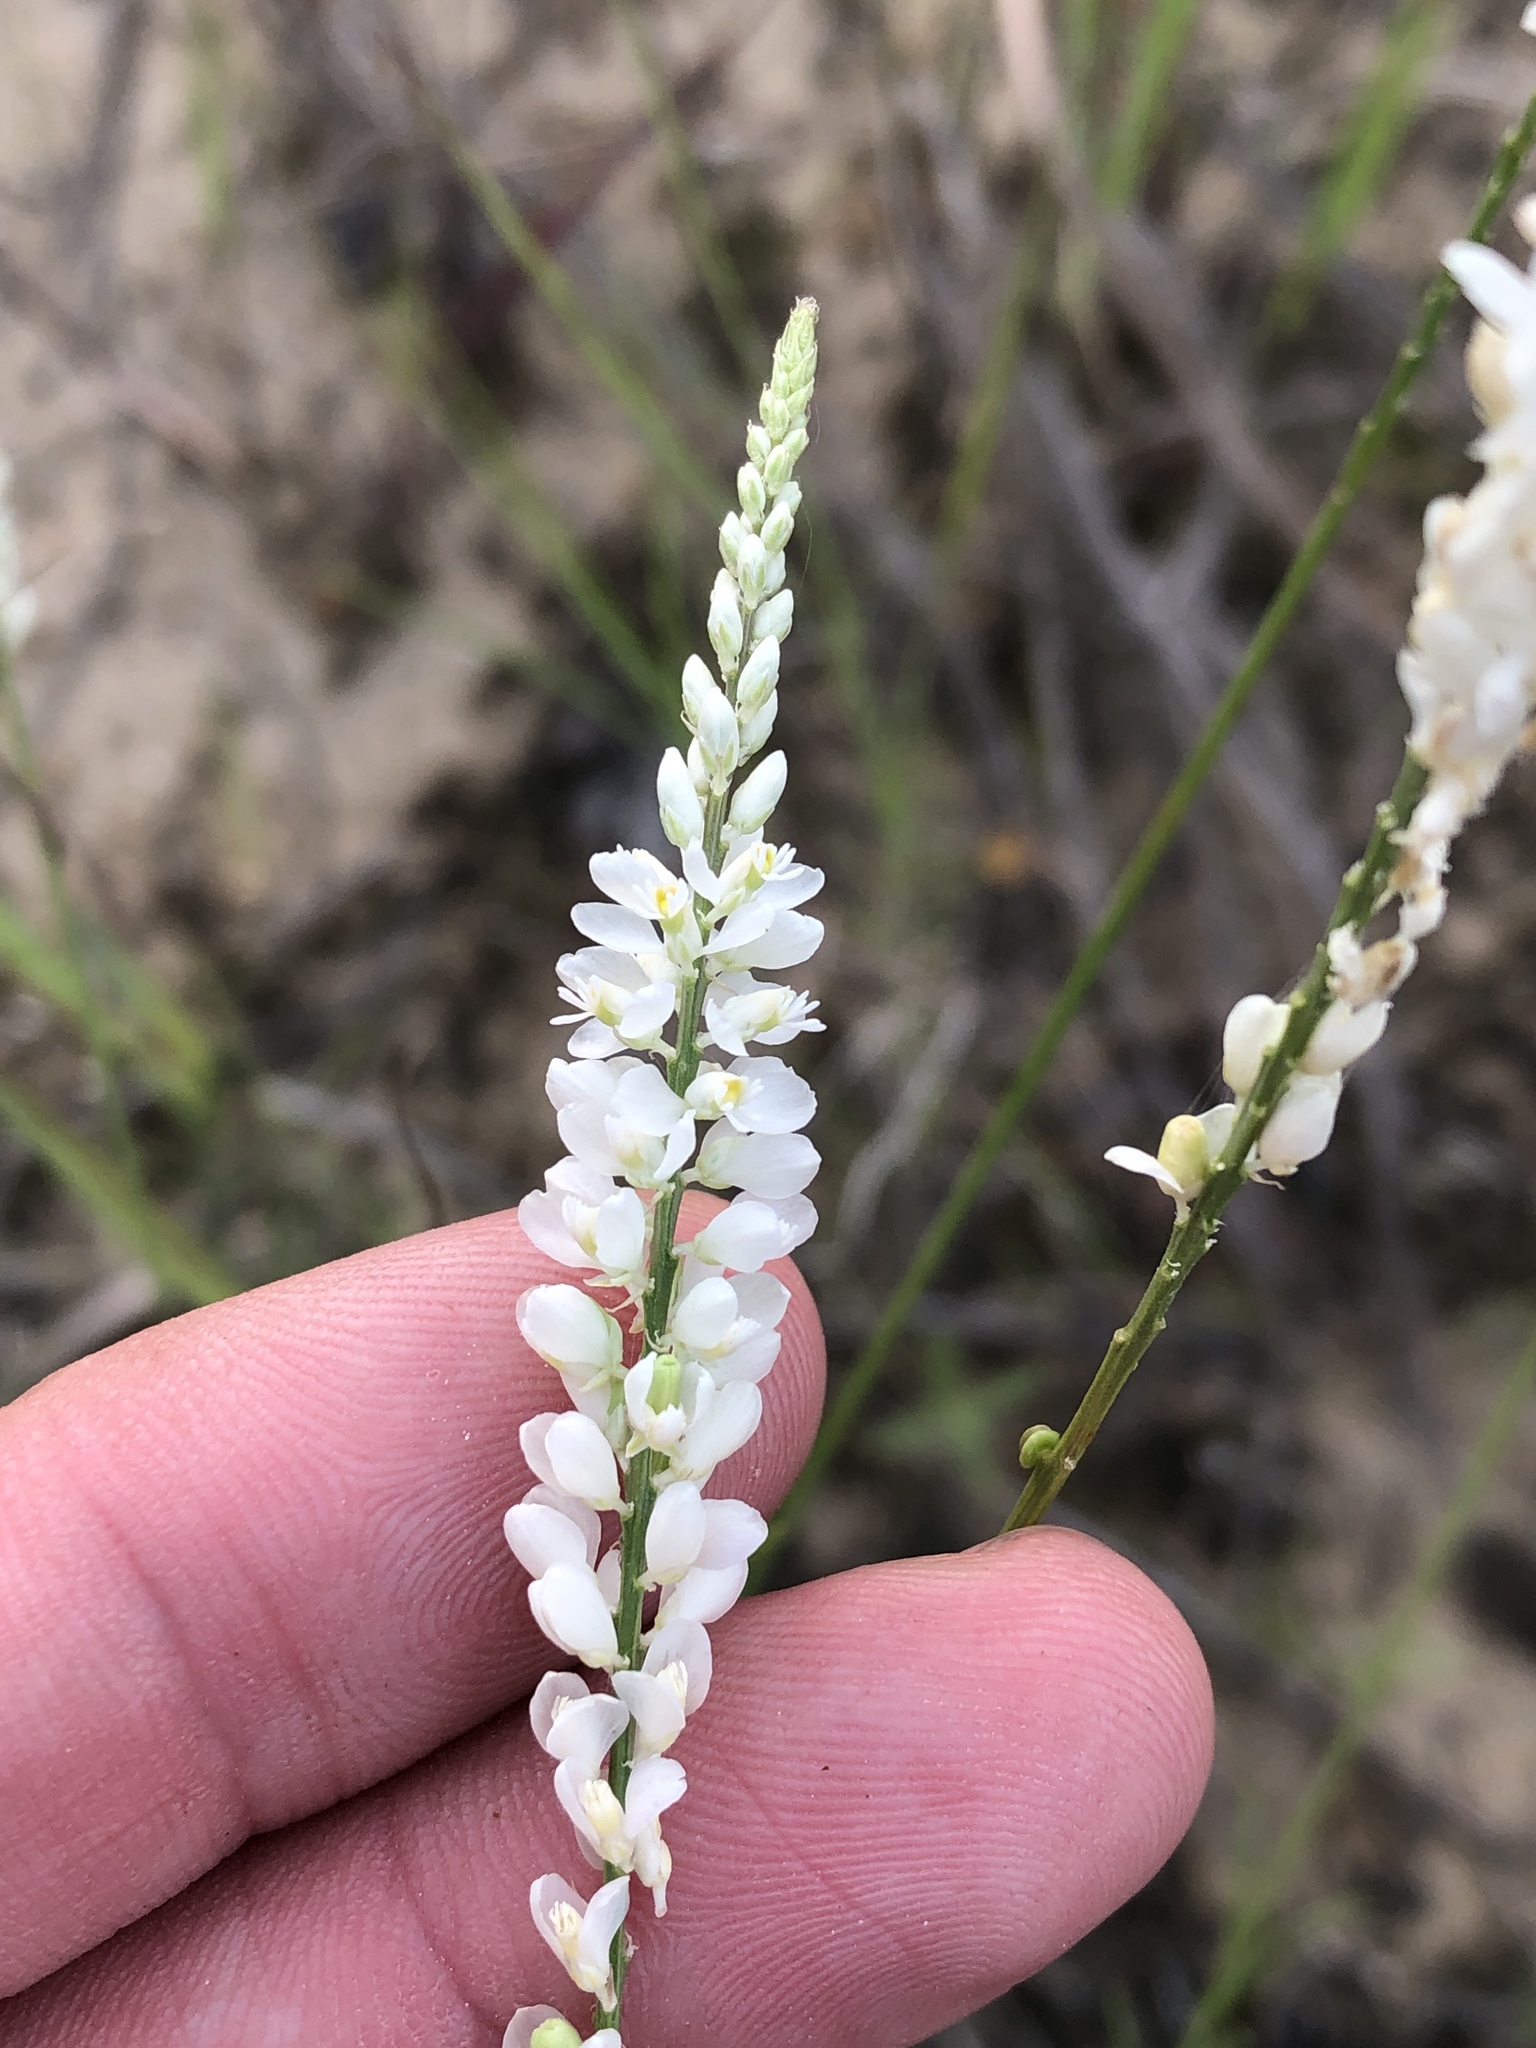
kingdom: Plantae
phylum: Tracheophyta
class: Magnoliopsida
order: Fabales
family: Polygalaceae
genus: Polygala
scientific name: Polygala alba
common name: White milkwort
